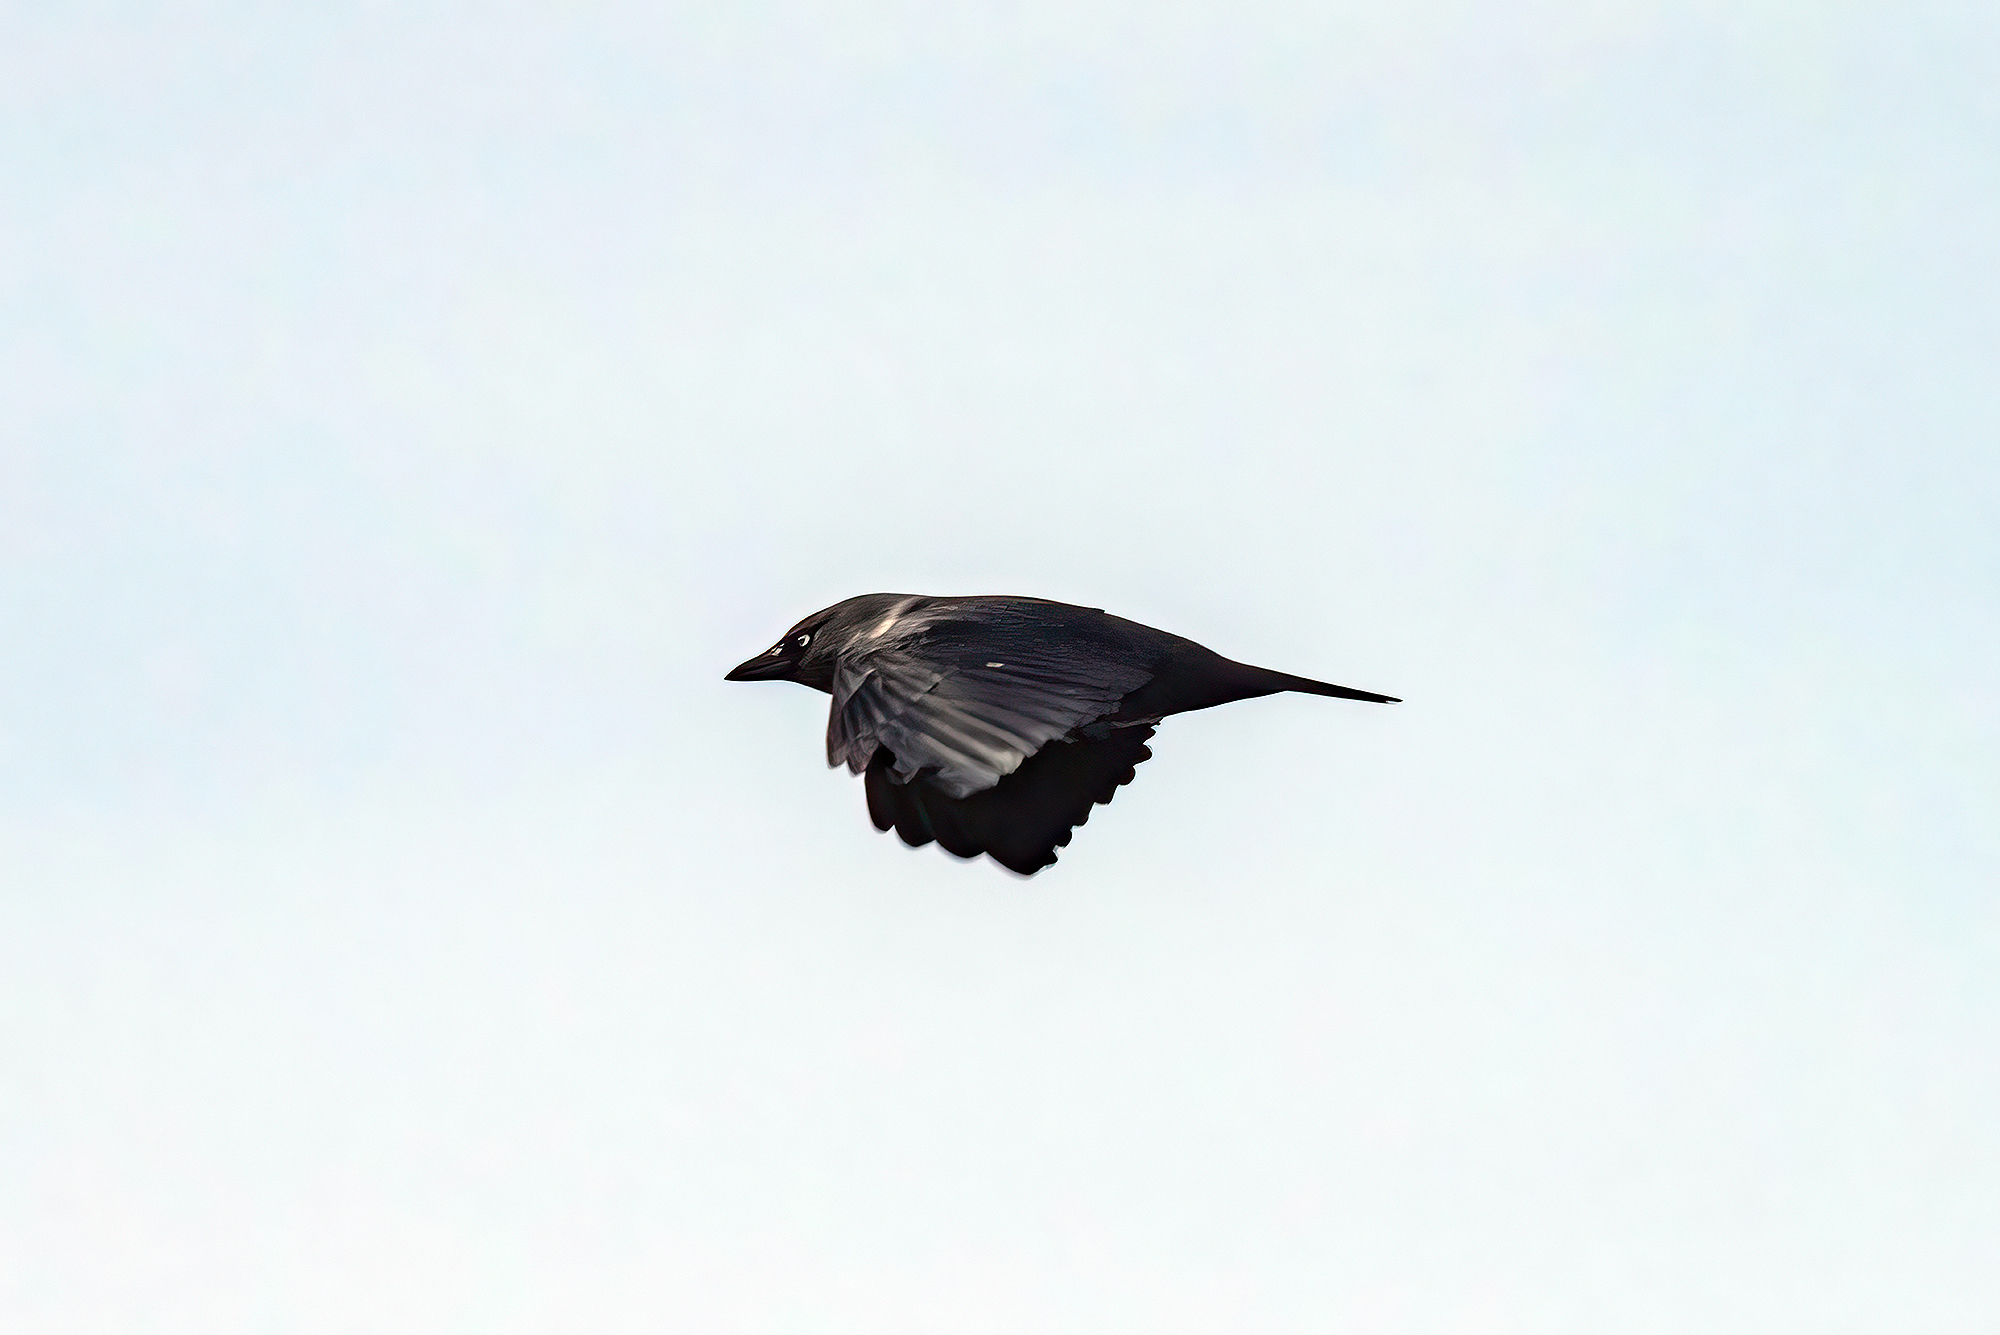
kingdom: Animalia
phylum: Chordata
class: Aves
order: Passeriformes
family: Corvidae
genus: Coloeus
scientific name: Coloeus monedula
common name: Western jackdaw
